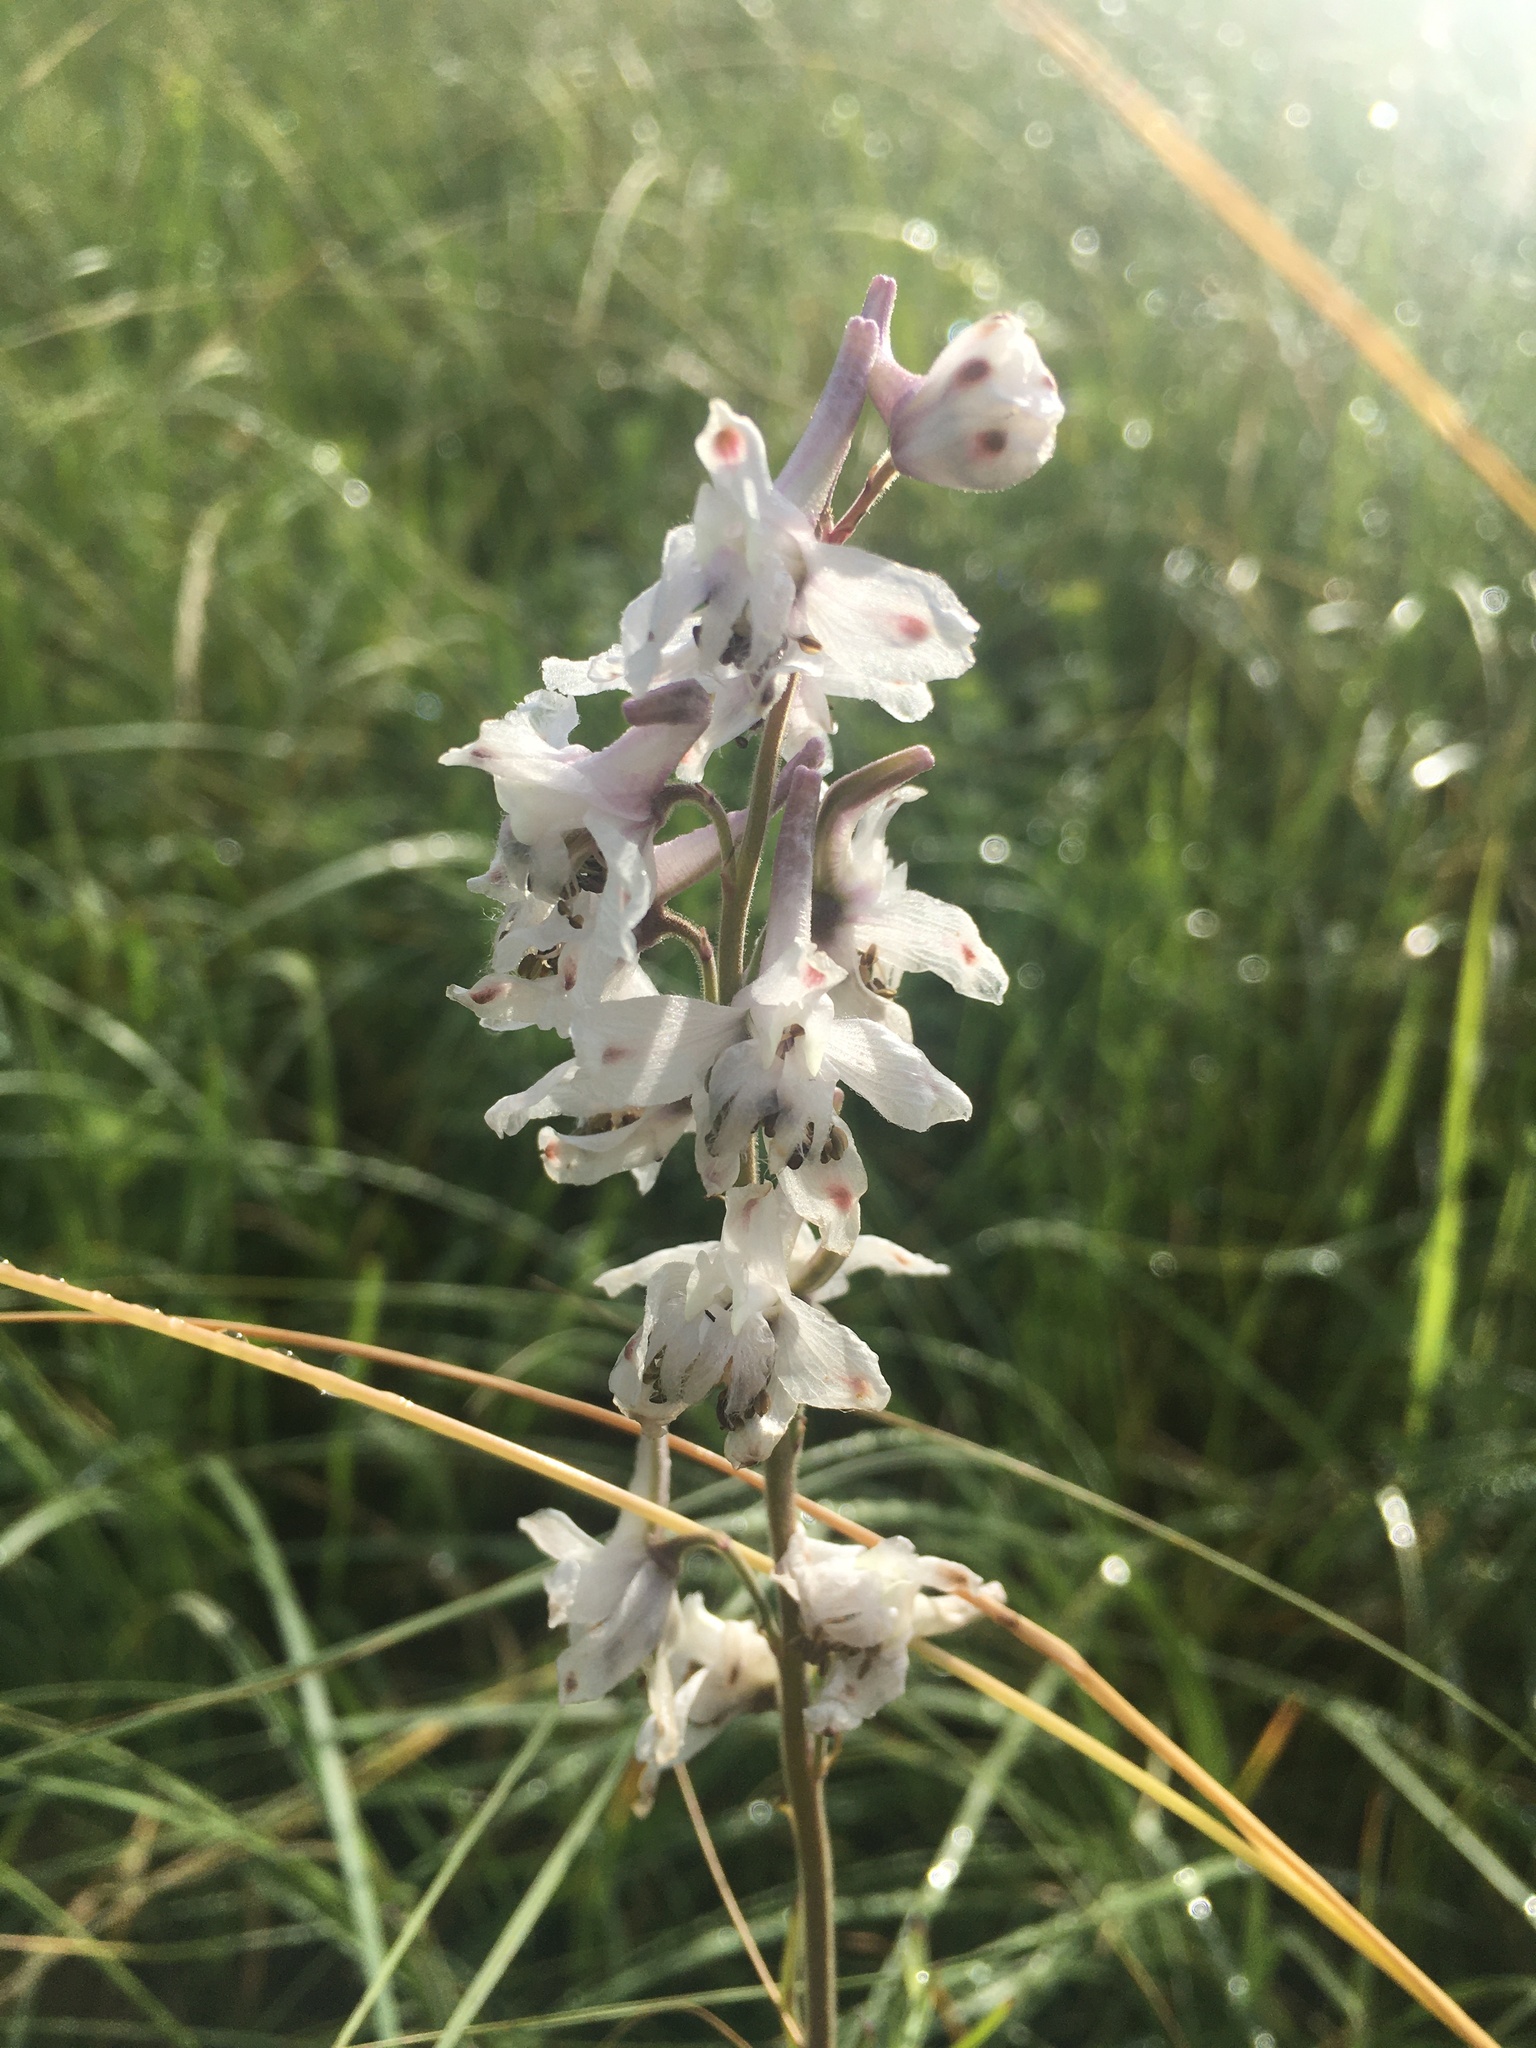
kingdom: Plantae
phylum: Tracheophyta
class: Magnoliopsida
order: Ranunculales
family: Ranunculaceae
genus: Delphinium
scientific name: Delphinium carolinianum
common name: Carolina larkspur
